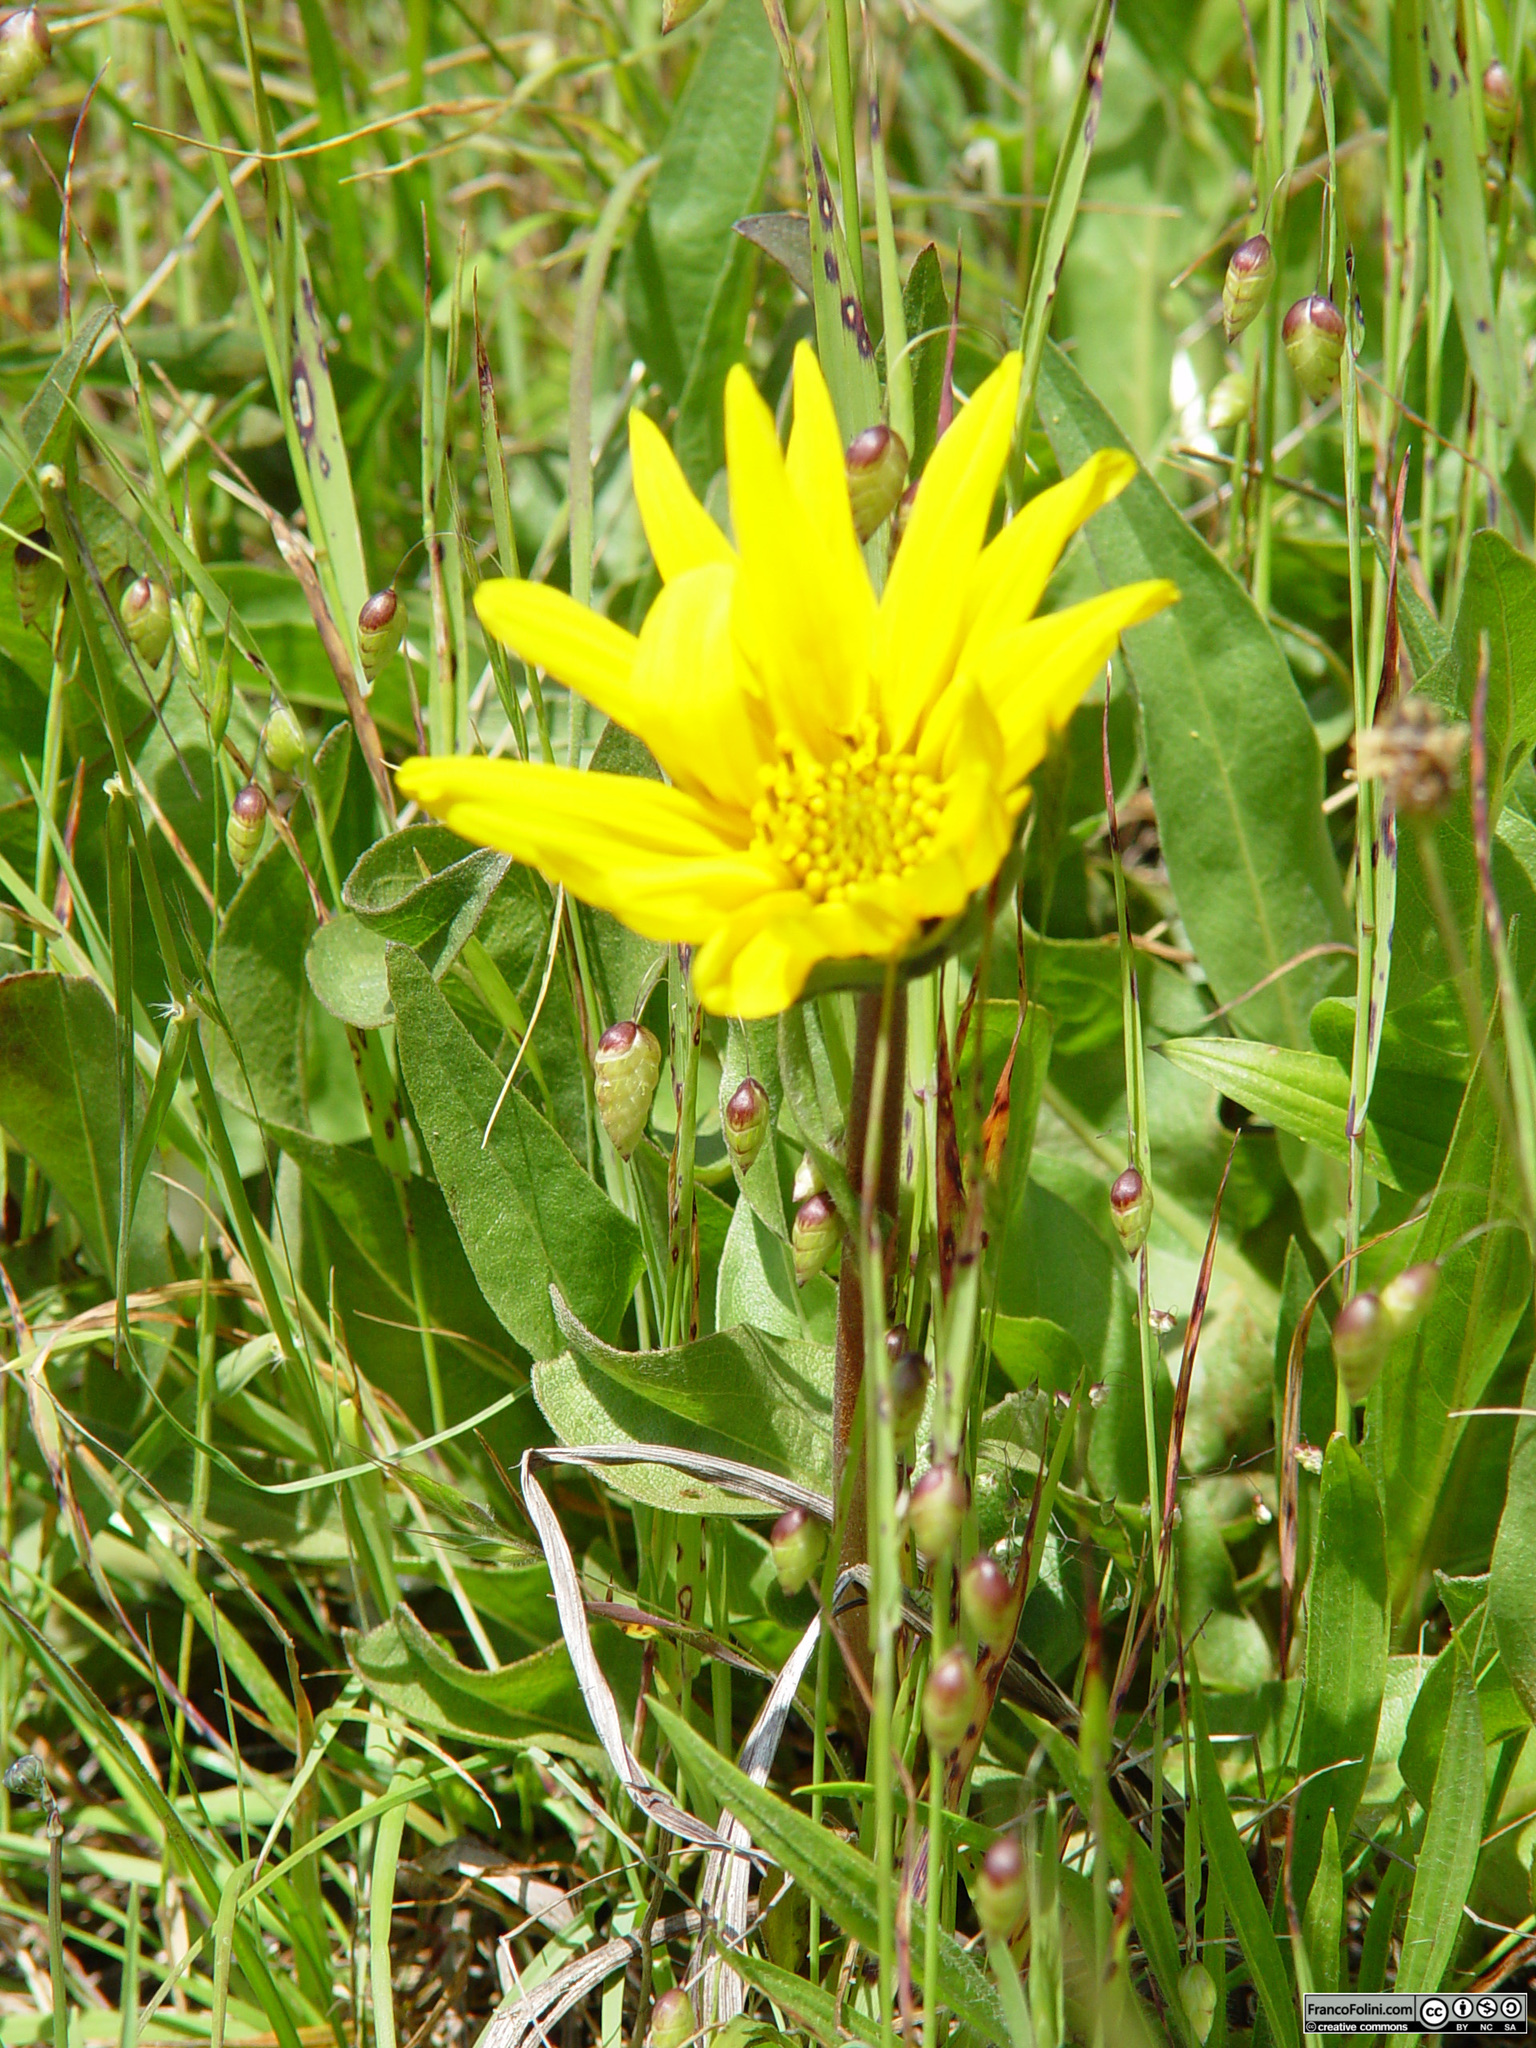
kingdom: Plantae
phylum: Tracheophyta
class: Magnoliopsida
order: Asterales
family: Asteraceae
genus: Wyethia
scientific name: Wyethia angustifolia
